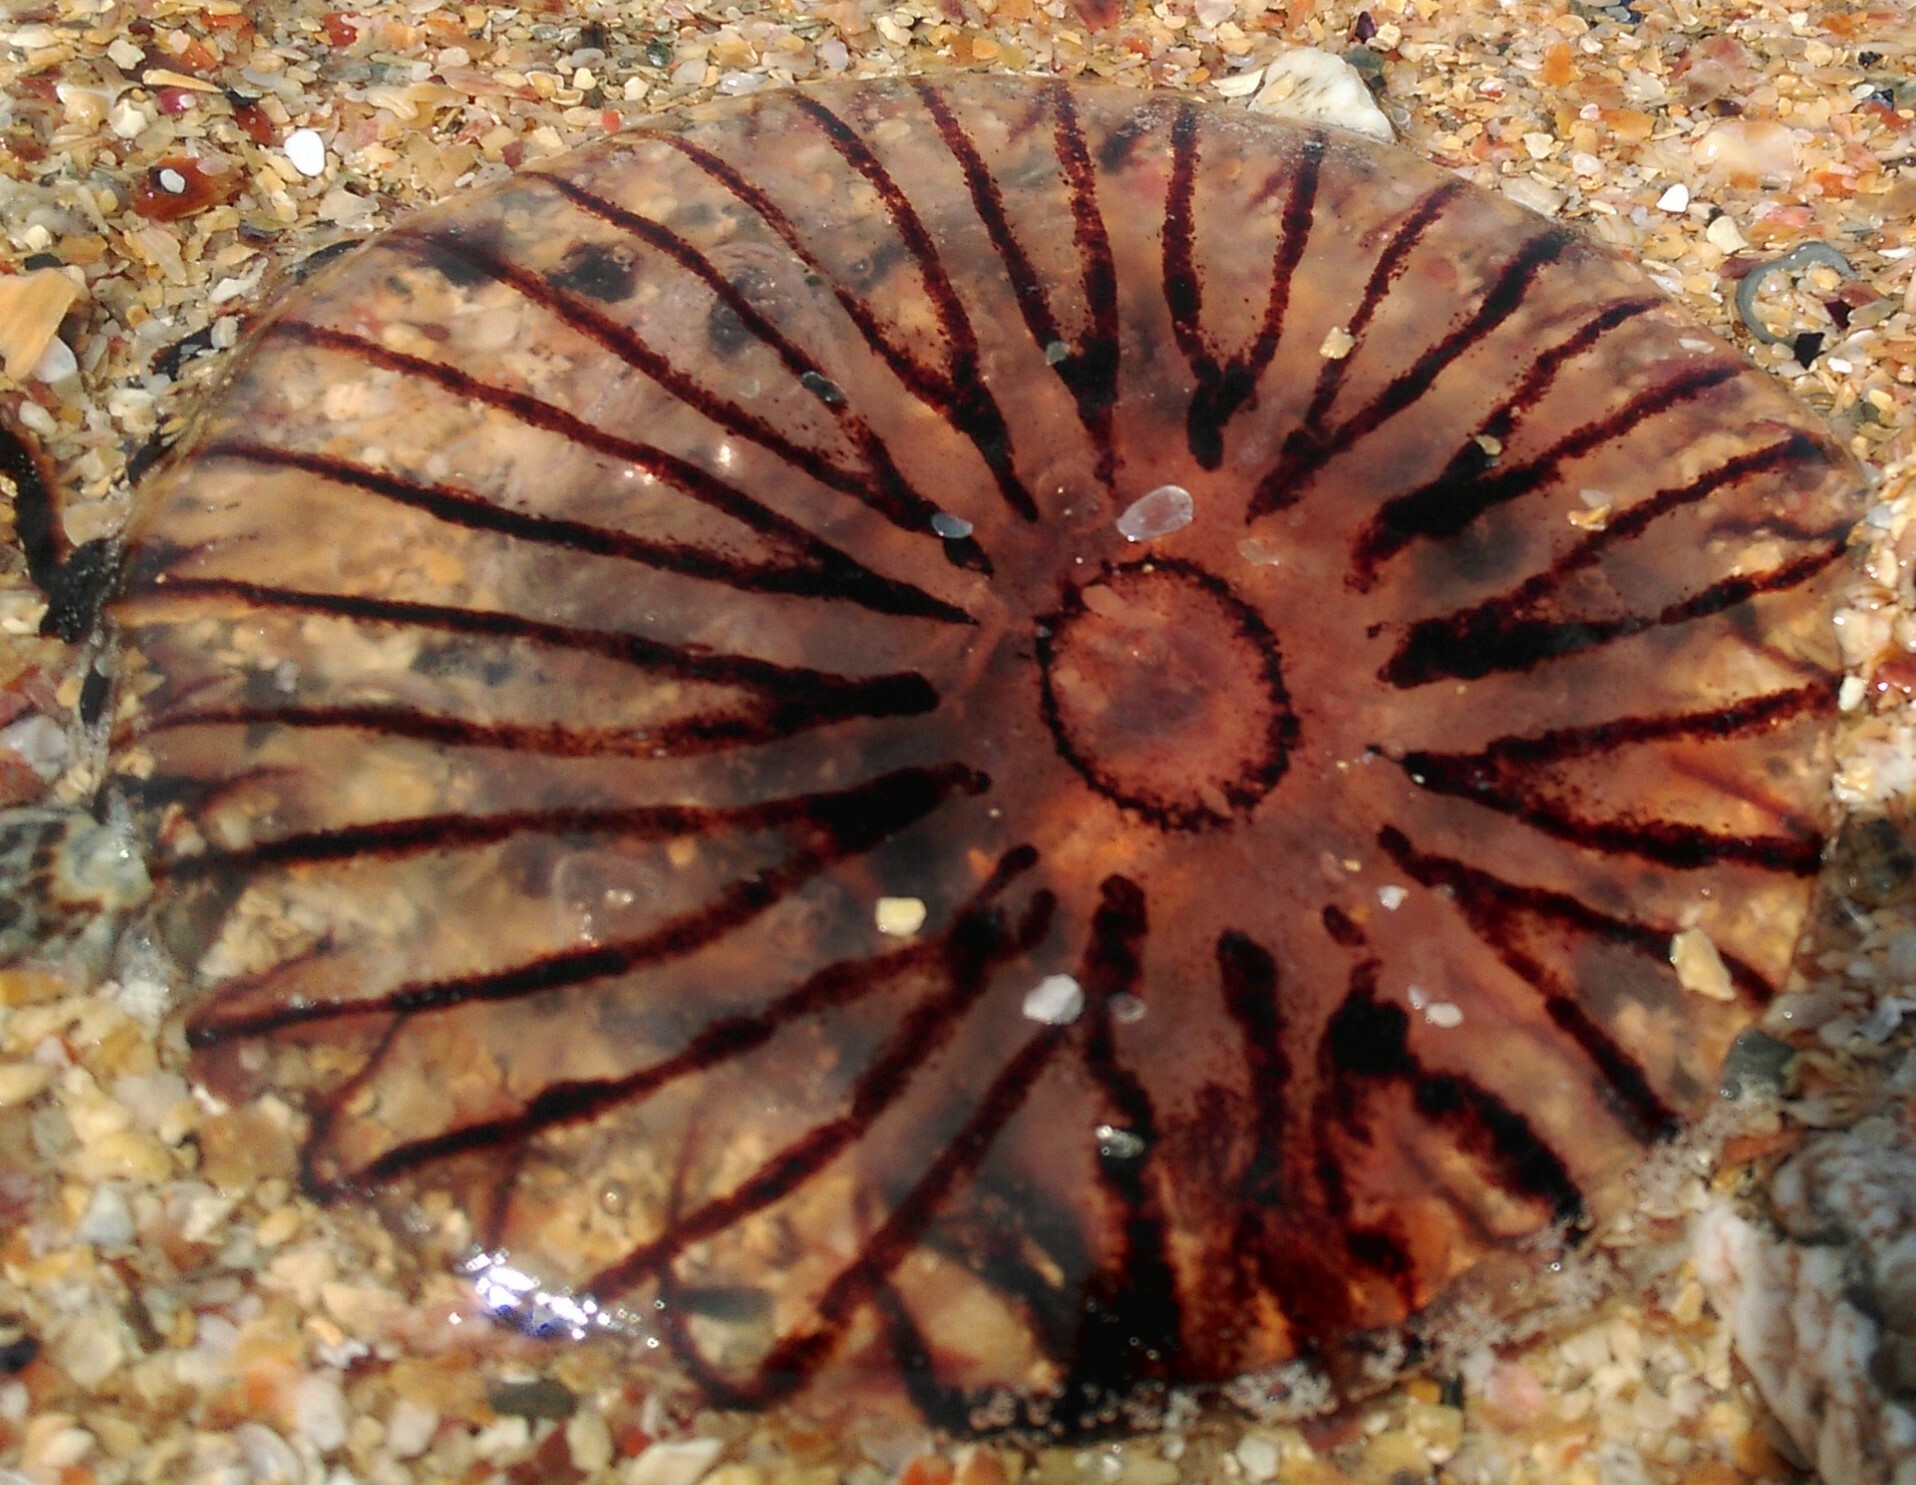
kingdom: Animalia
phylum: Cnidaria
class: Scyphozoa
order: Semaeostomeae
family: Pelagiidae
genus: Chrysaora
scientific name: Chrysaora hysoscella
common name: Compass jellyfish
